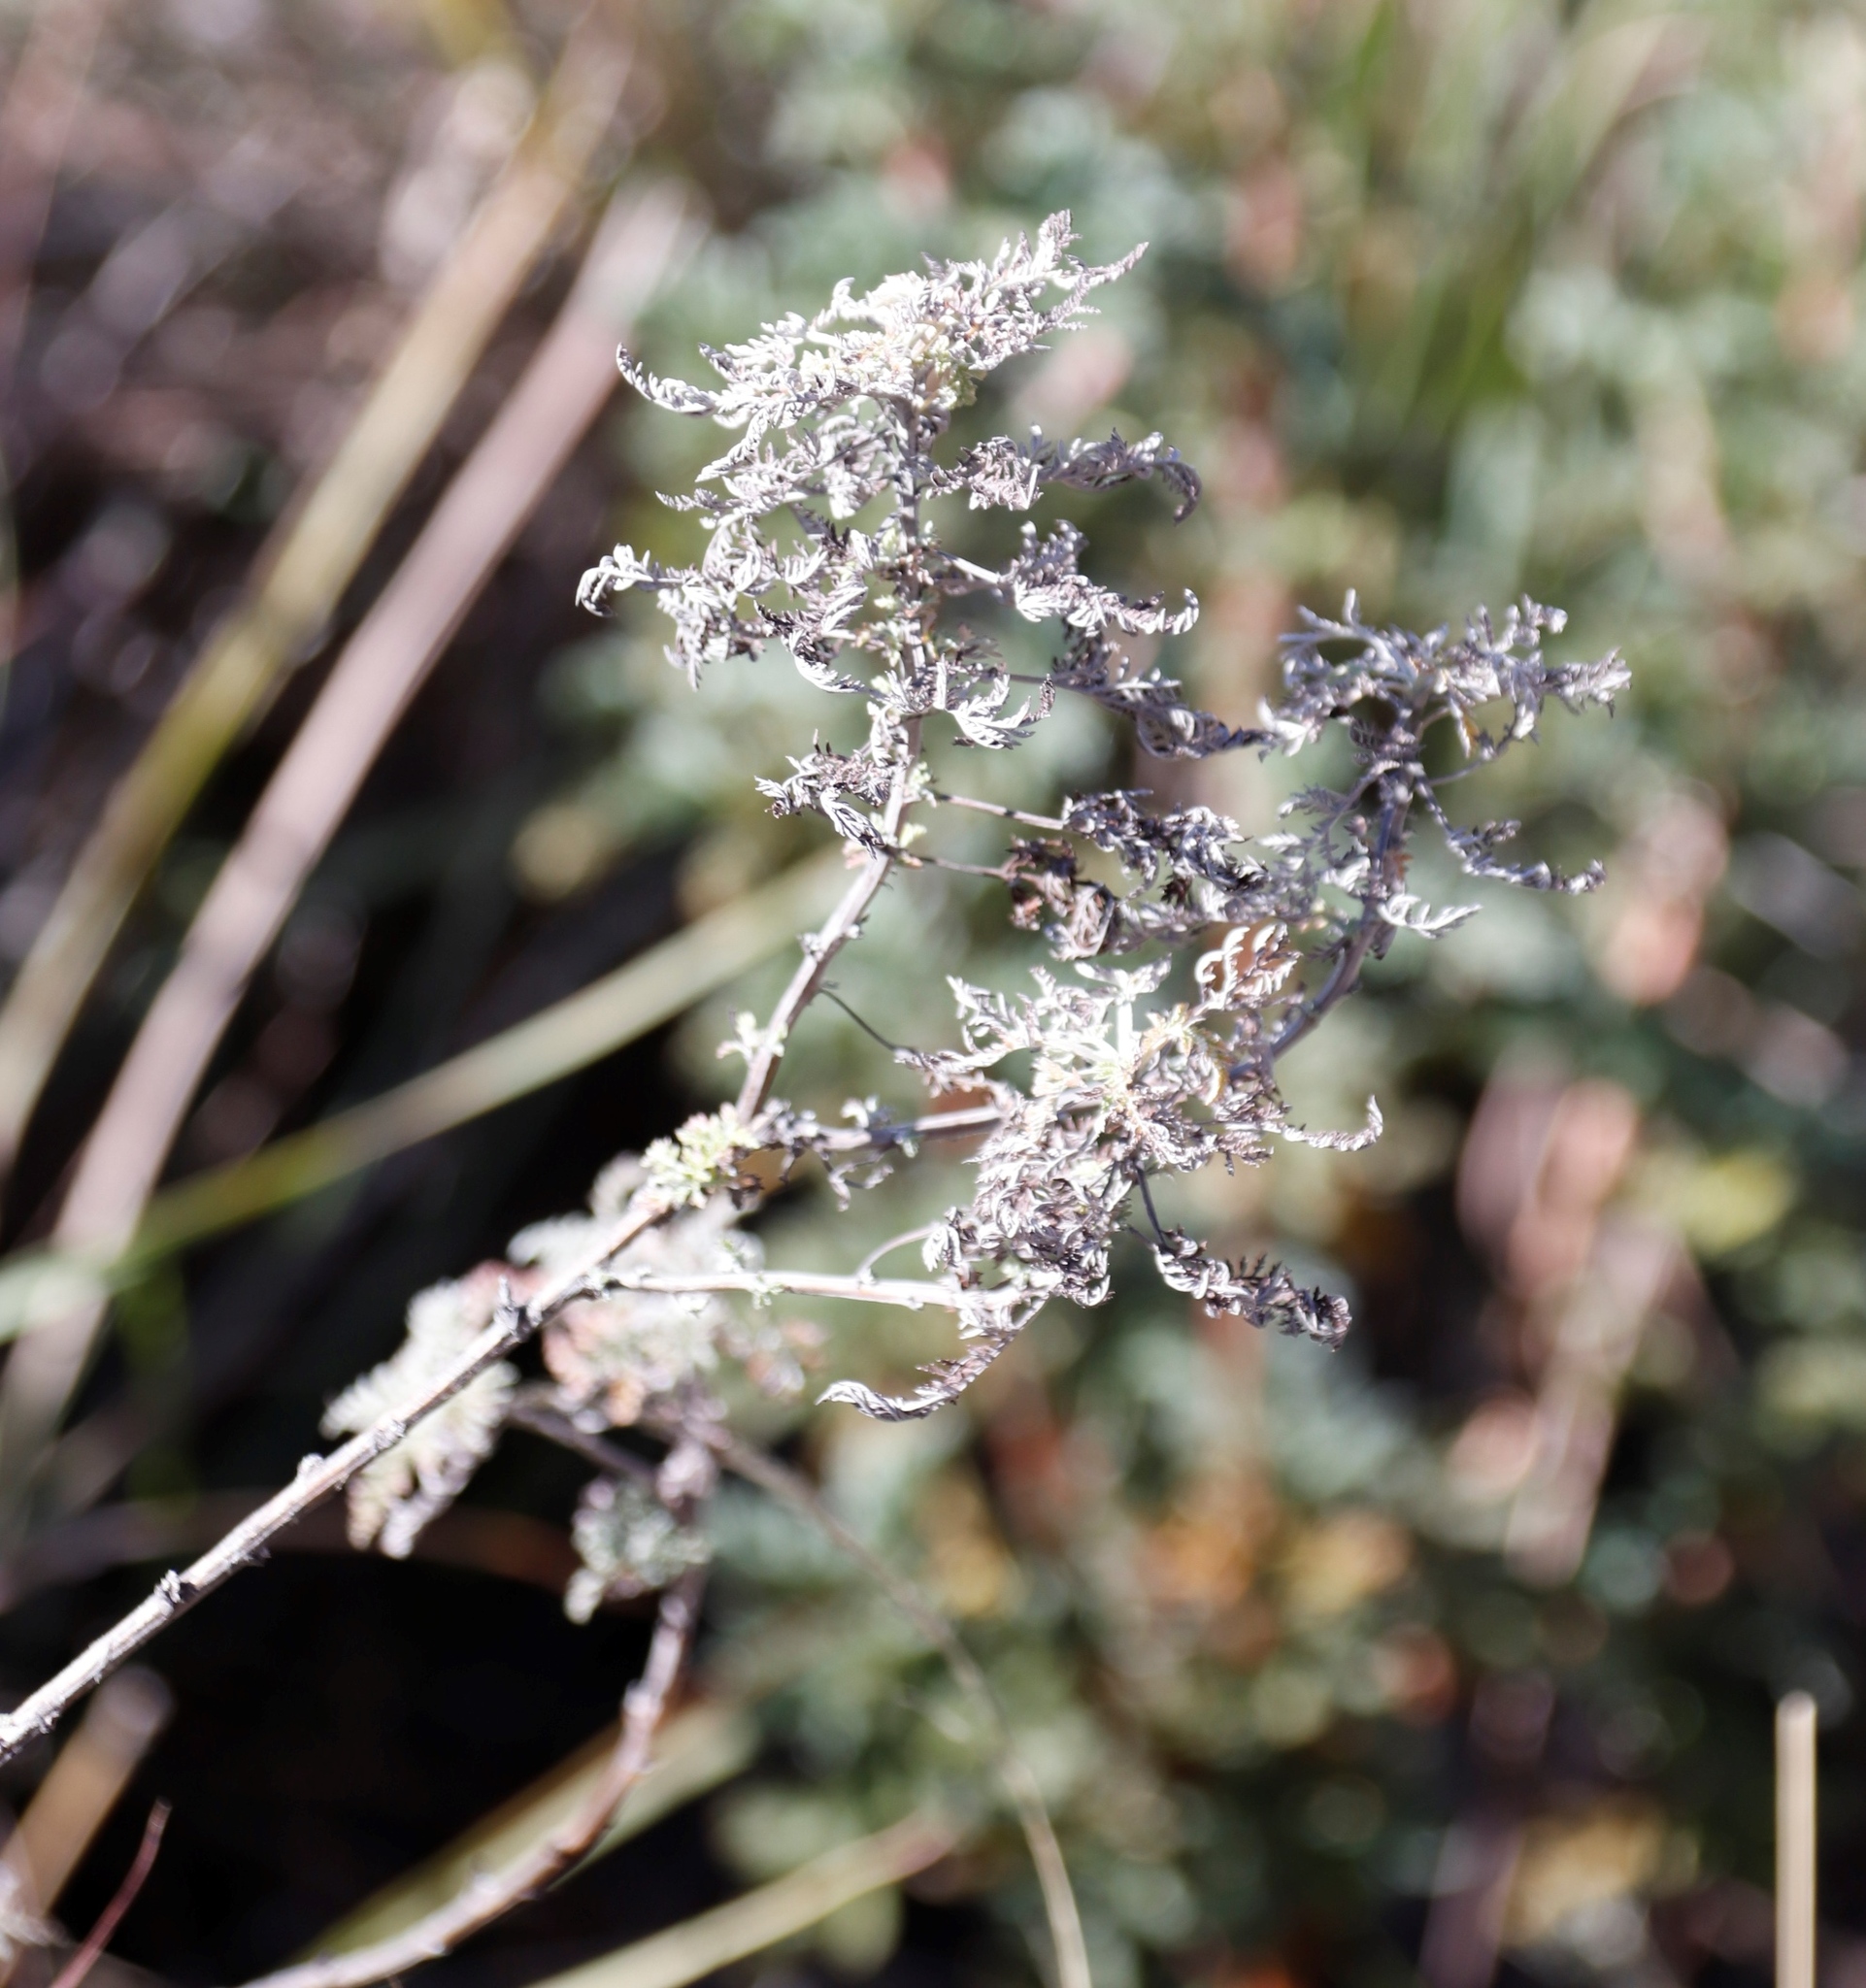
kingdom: Plantae
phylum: Tracheophyta
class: Magnoliopsida
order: Asterales
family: Asteraceae
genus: Artemisia
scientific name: Artemisia afra
